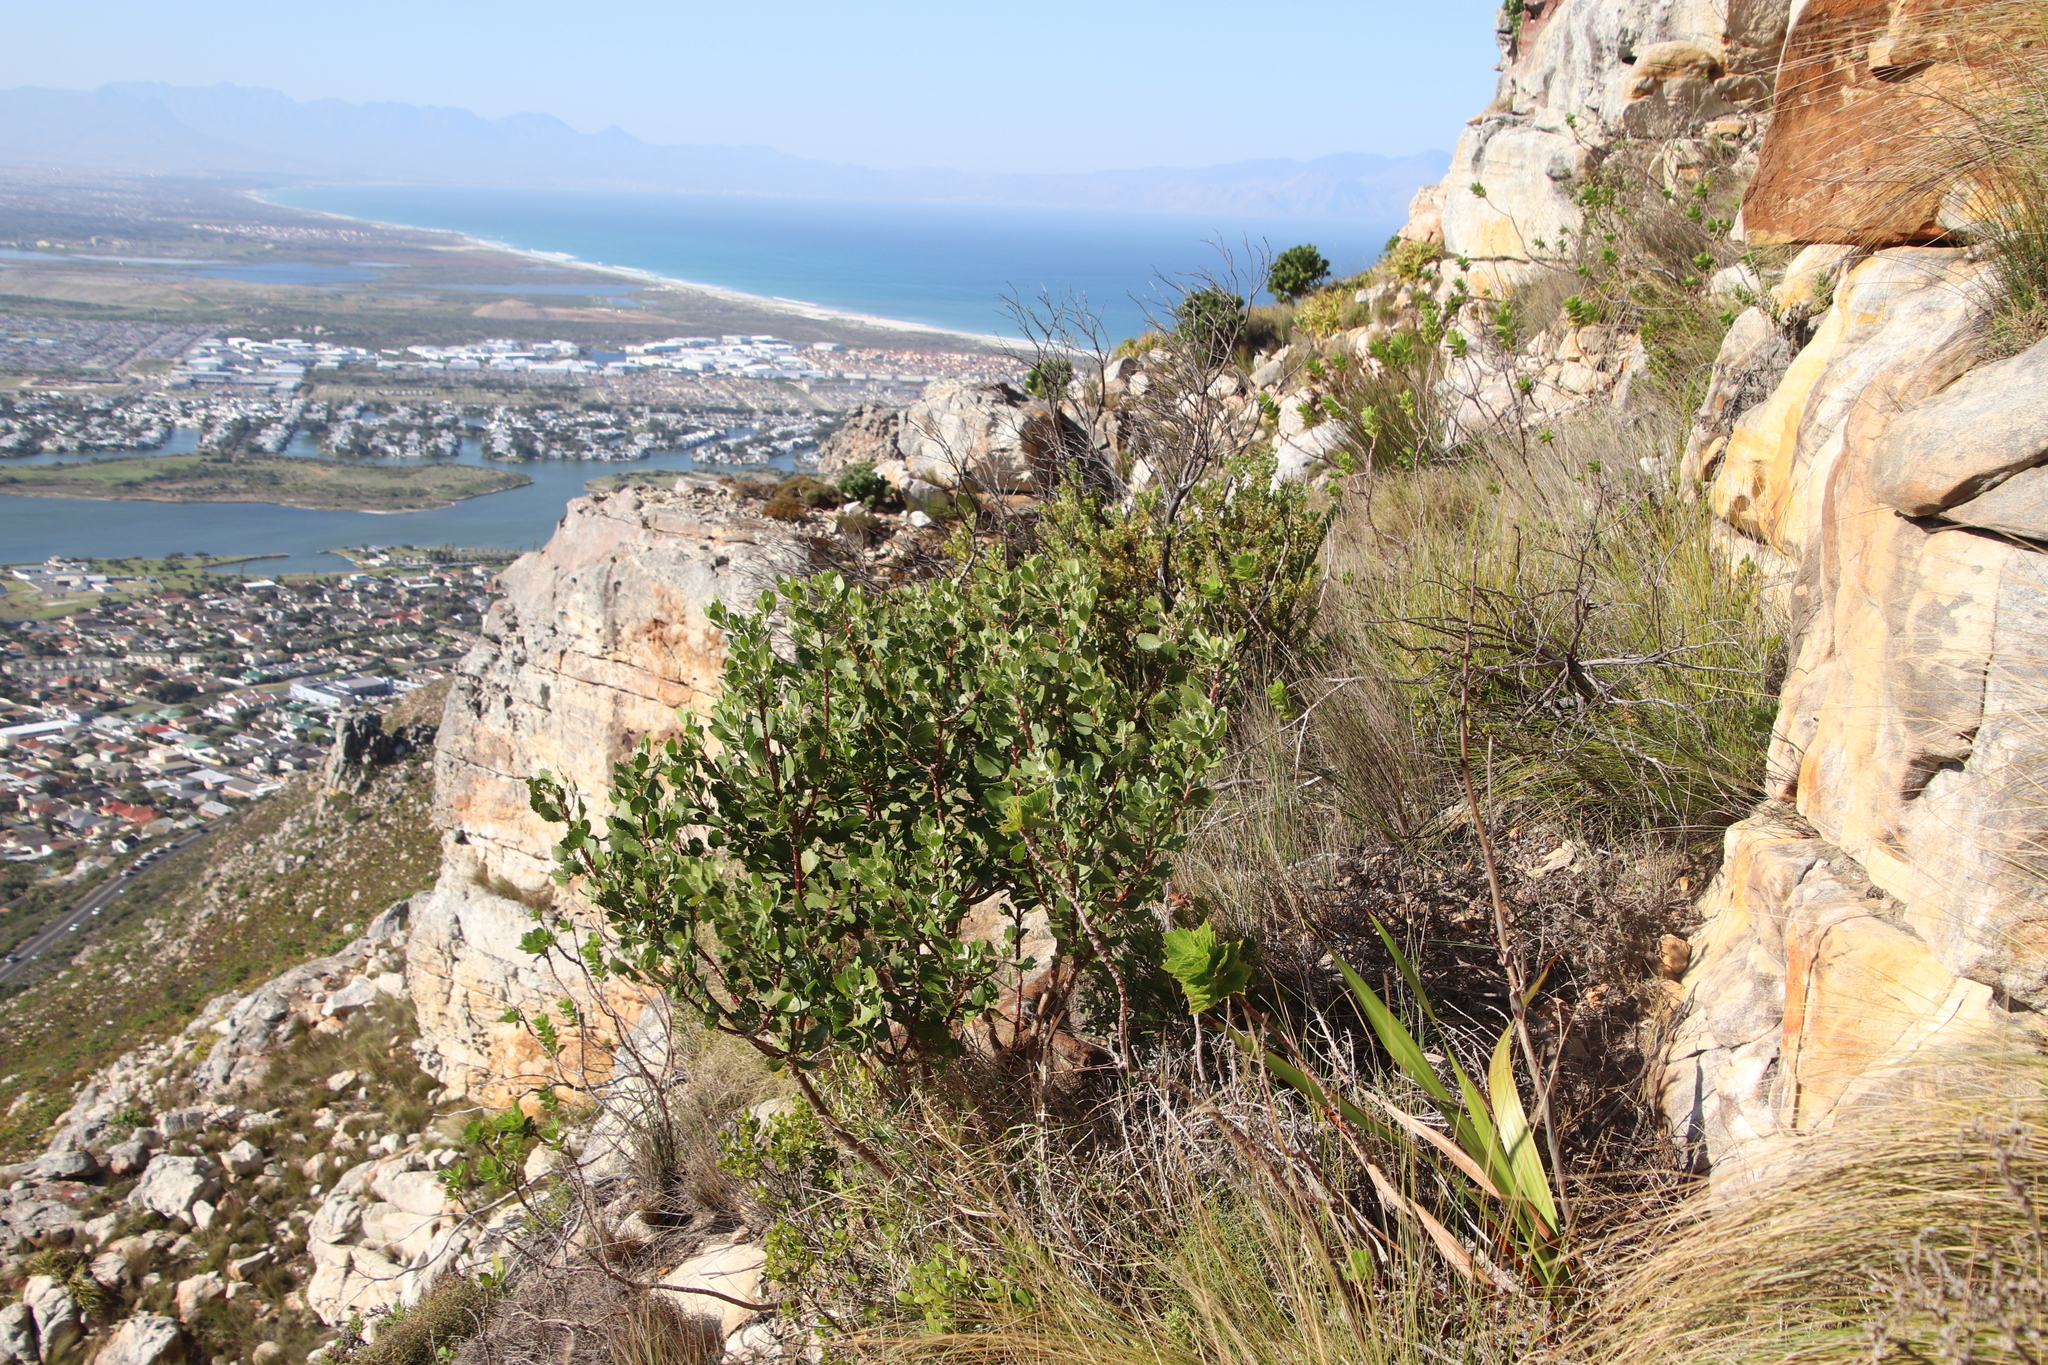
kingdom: Plantae
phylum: Tracheophyta
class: Magnoliopsida
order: Asterales
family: Asteraceae
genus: Osteospermum
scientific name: Osteospermum moniliferum
